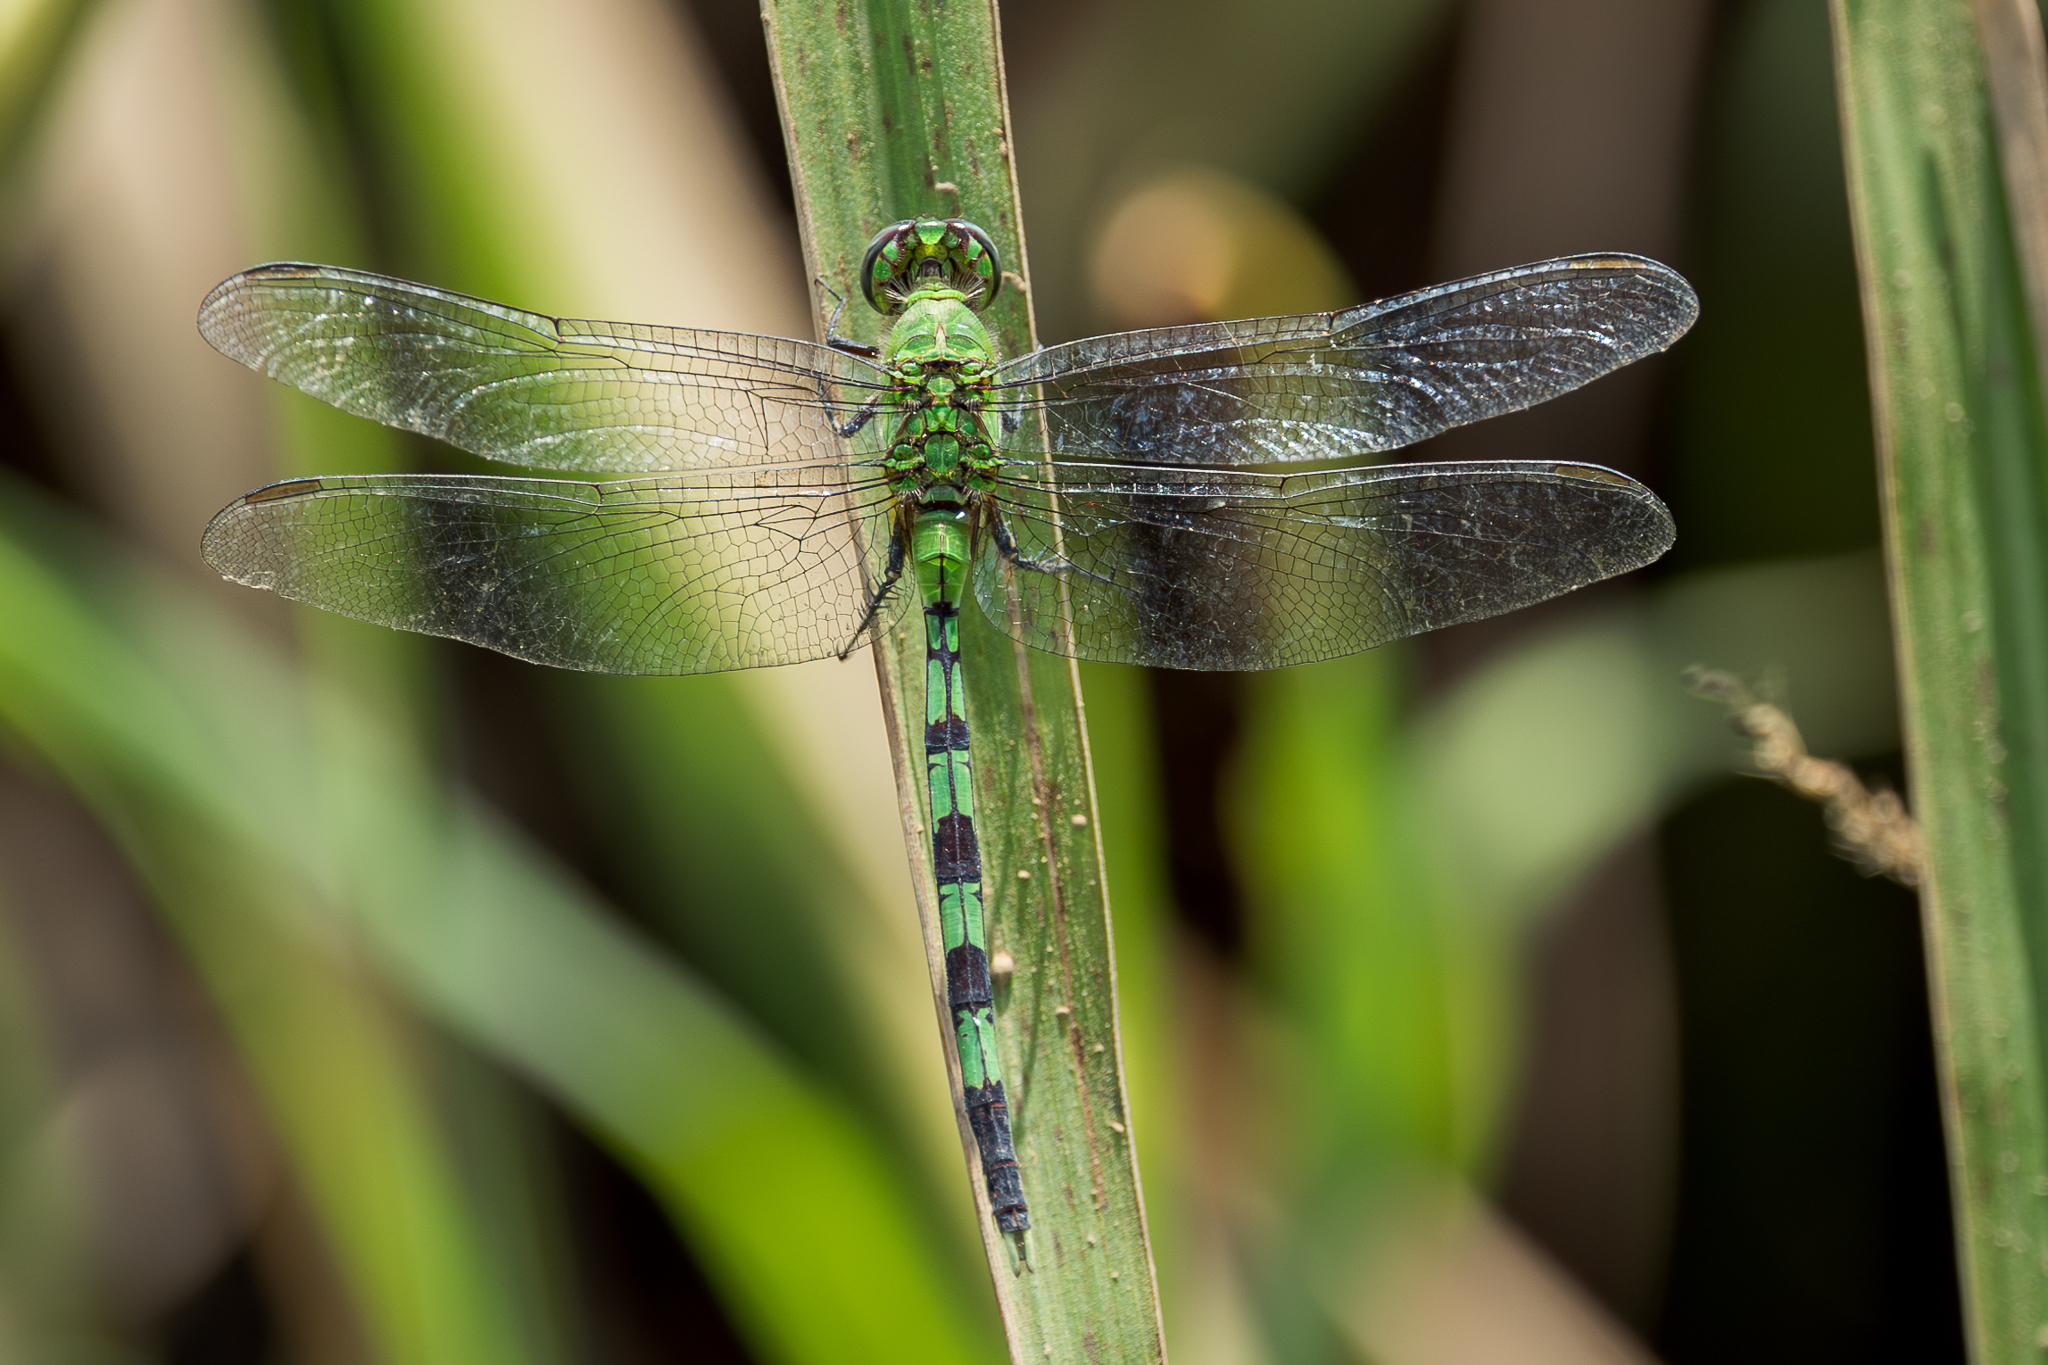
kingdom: Animalia
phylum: Arthropoda
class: Insecta
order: Odonata
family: Libellulidae
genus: Erythemis
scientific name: Erythemis vesiculosa
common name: Great pondhawk
